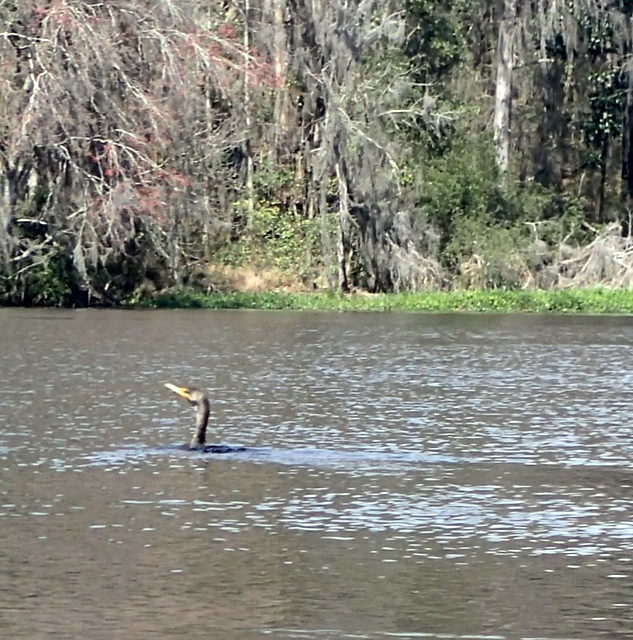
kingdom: Animalia
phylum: Chordata
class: Aves
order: Suliformes
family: Phalacrocoracidae
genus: Phalacrocorax
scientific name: Phalacrocorax auritus
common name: Double-crested cormorant
